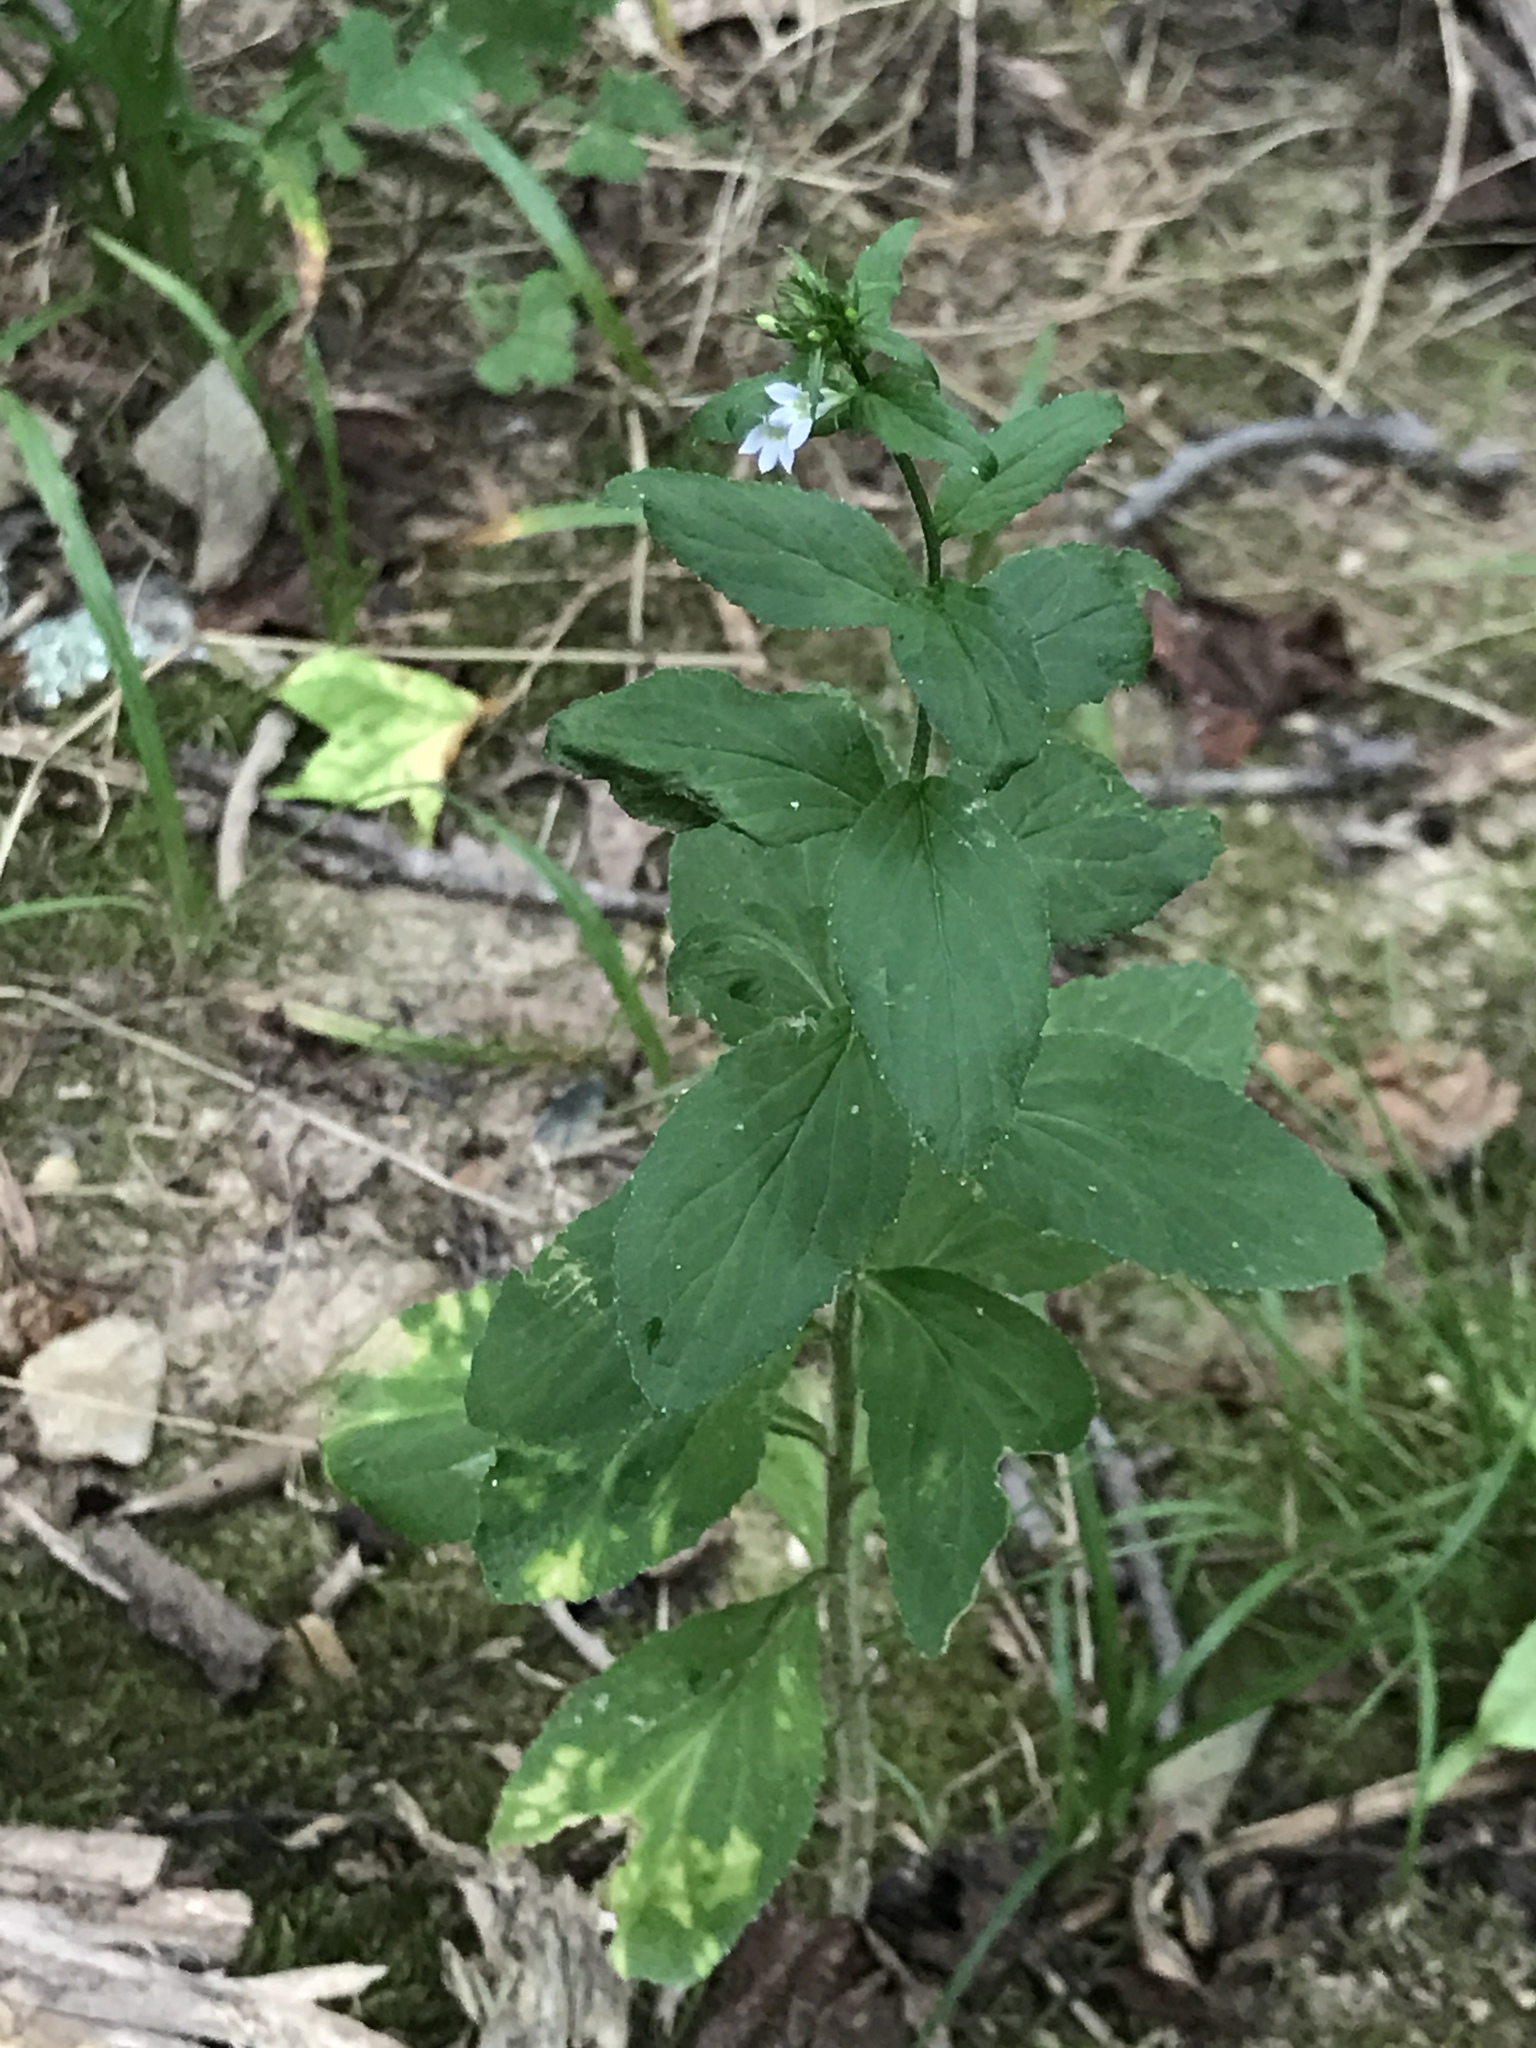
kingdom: Plantae
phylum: Tracheophyta
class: Magnoliopsida
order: Asterales
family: Campanulaceae
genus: Lobelia
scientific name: Lobelia inflata
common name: Indian tobacco
